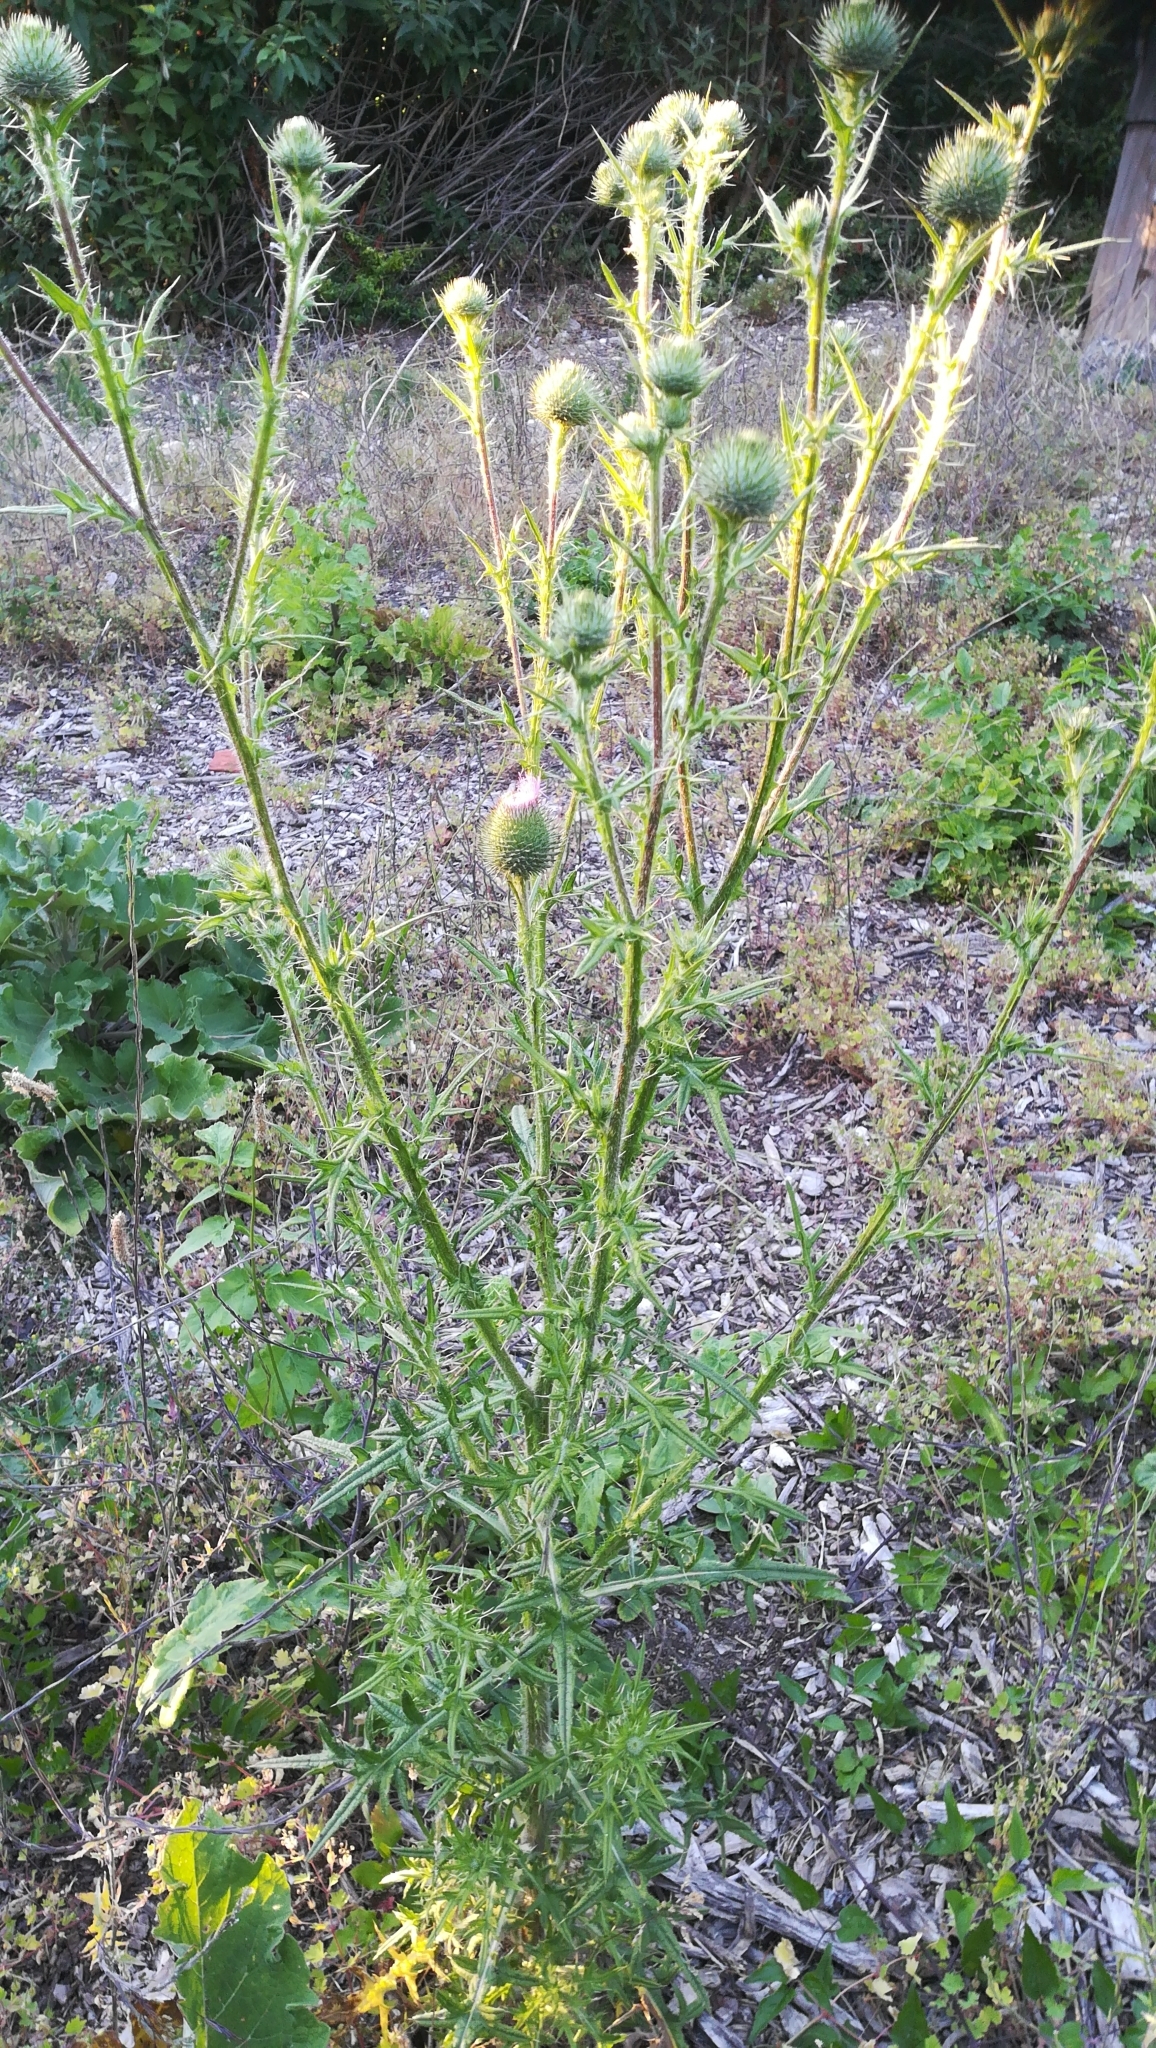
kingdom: Plantae
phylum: Tracheophyta
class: Magnoliopsida
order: Asterales
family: Asteraceae
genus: Cirsium
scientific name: Cirsium vulgare
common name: Bull thistle
